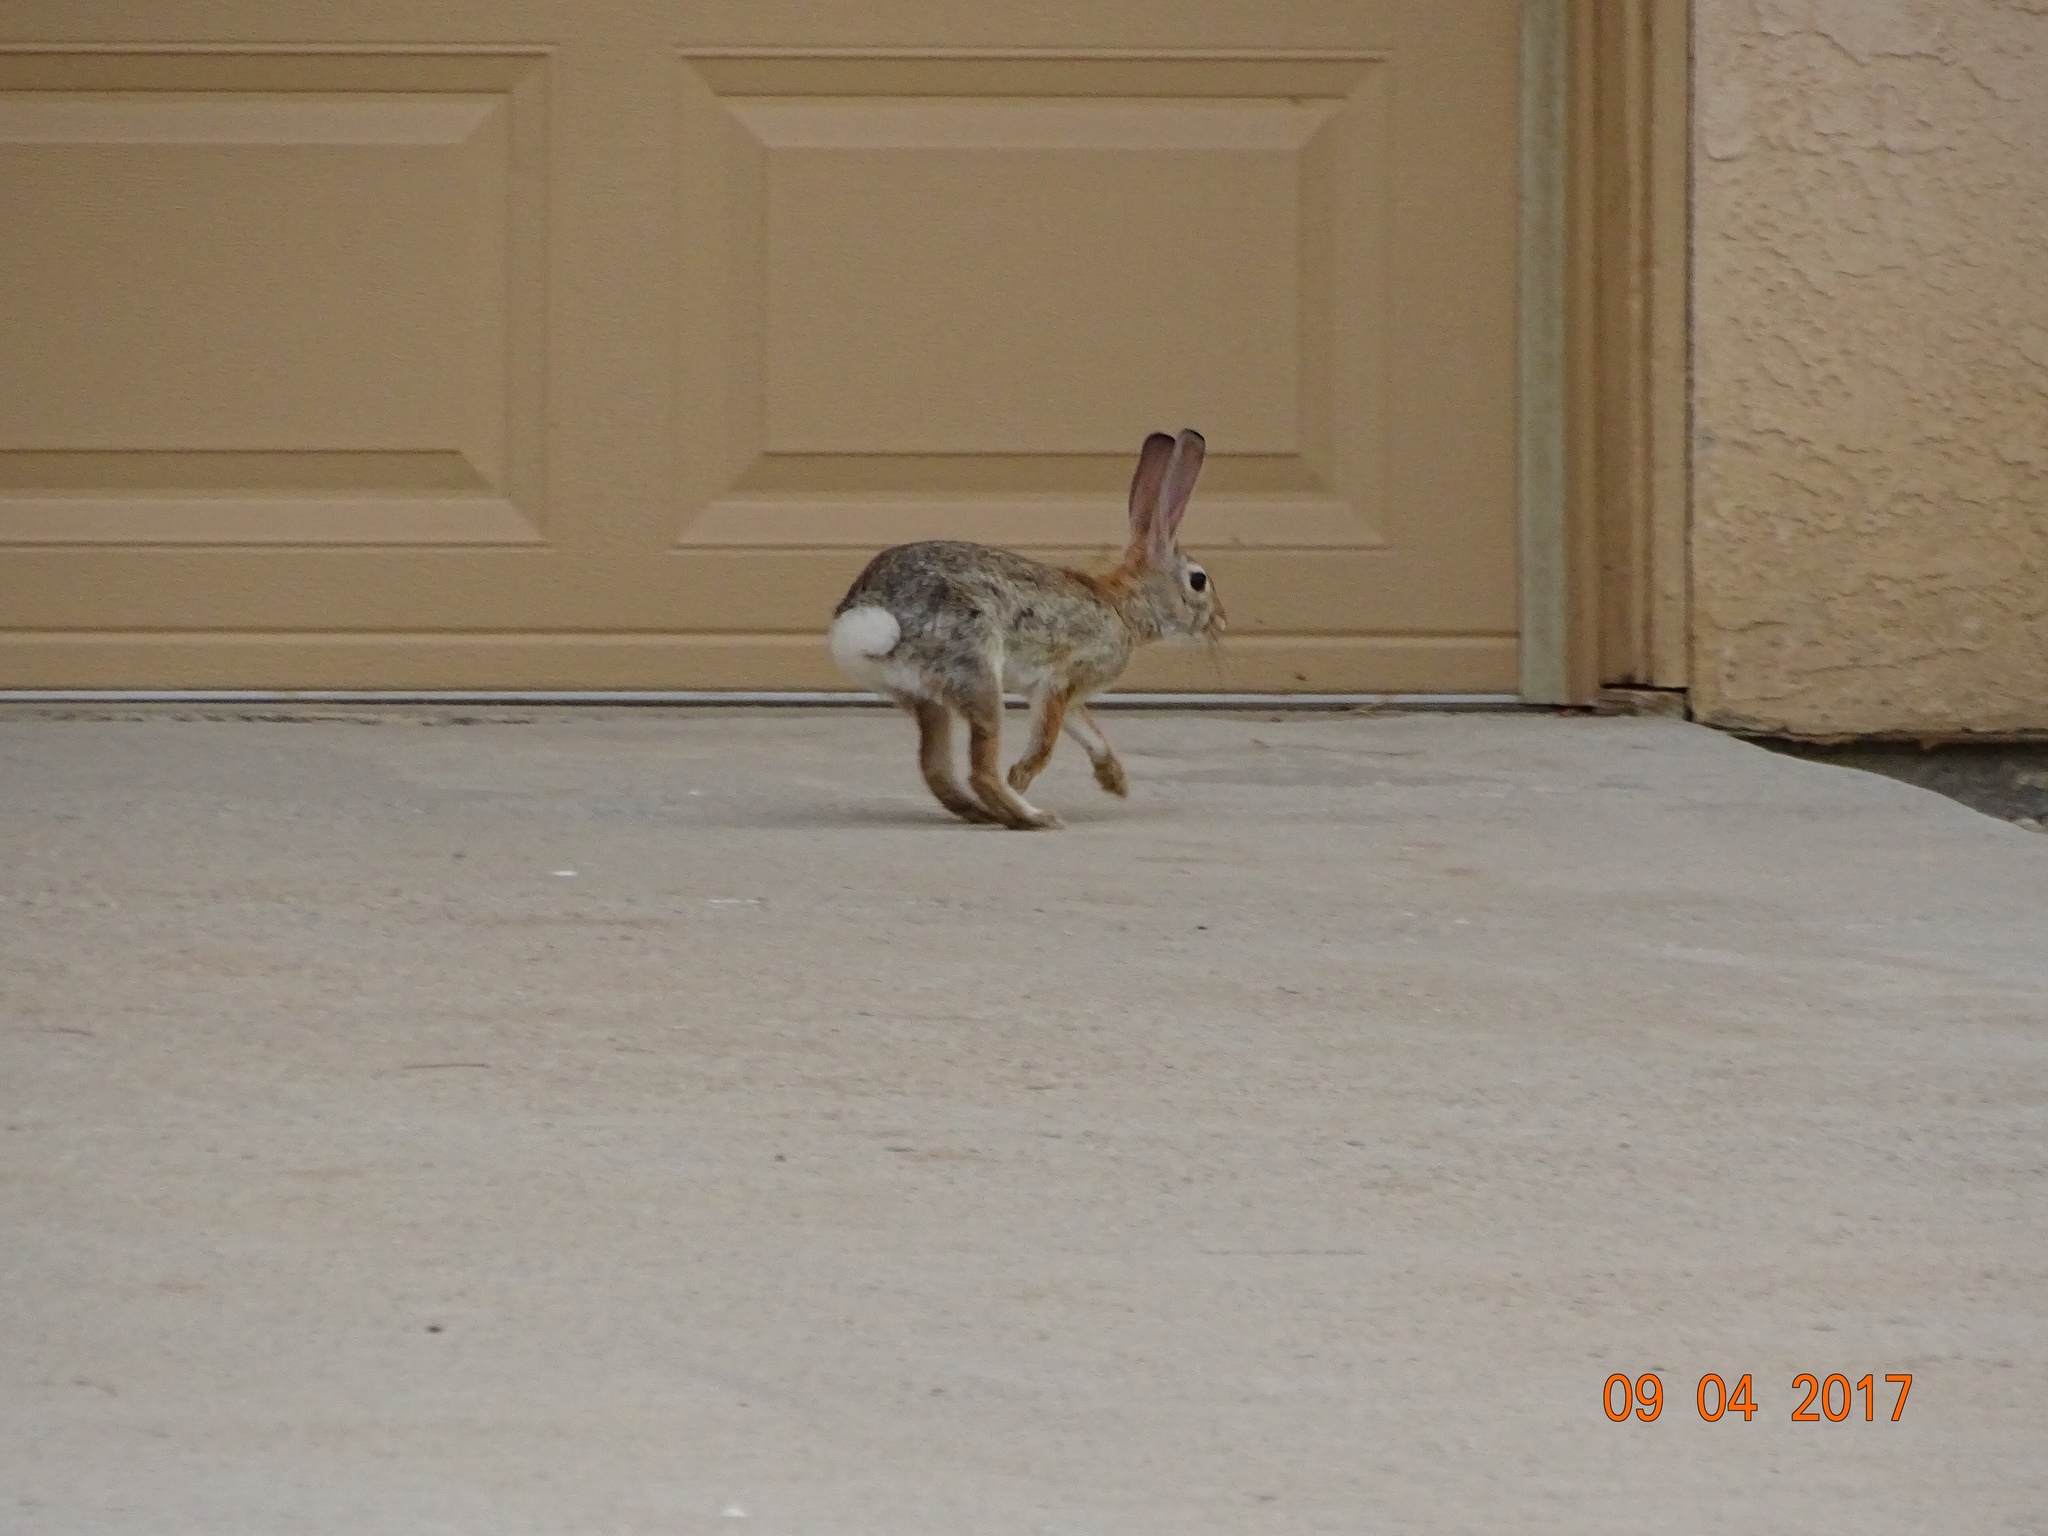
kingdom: Animalia
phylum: Chordata
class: Mammalia
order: Lagomorpha
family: Leporidae
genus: Sylvilagus
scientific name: Sylvilagus audubonii
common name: Desert cottontail
